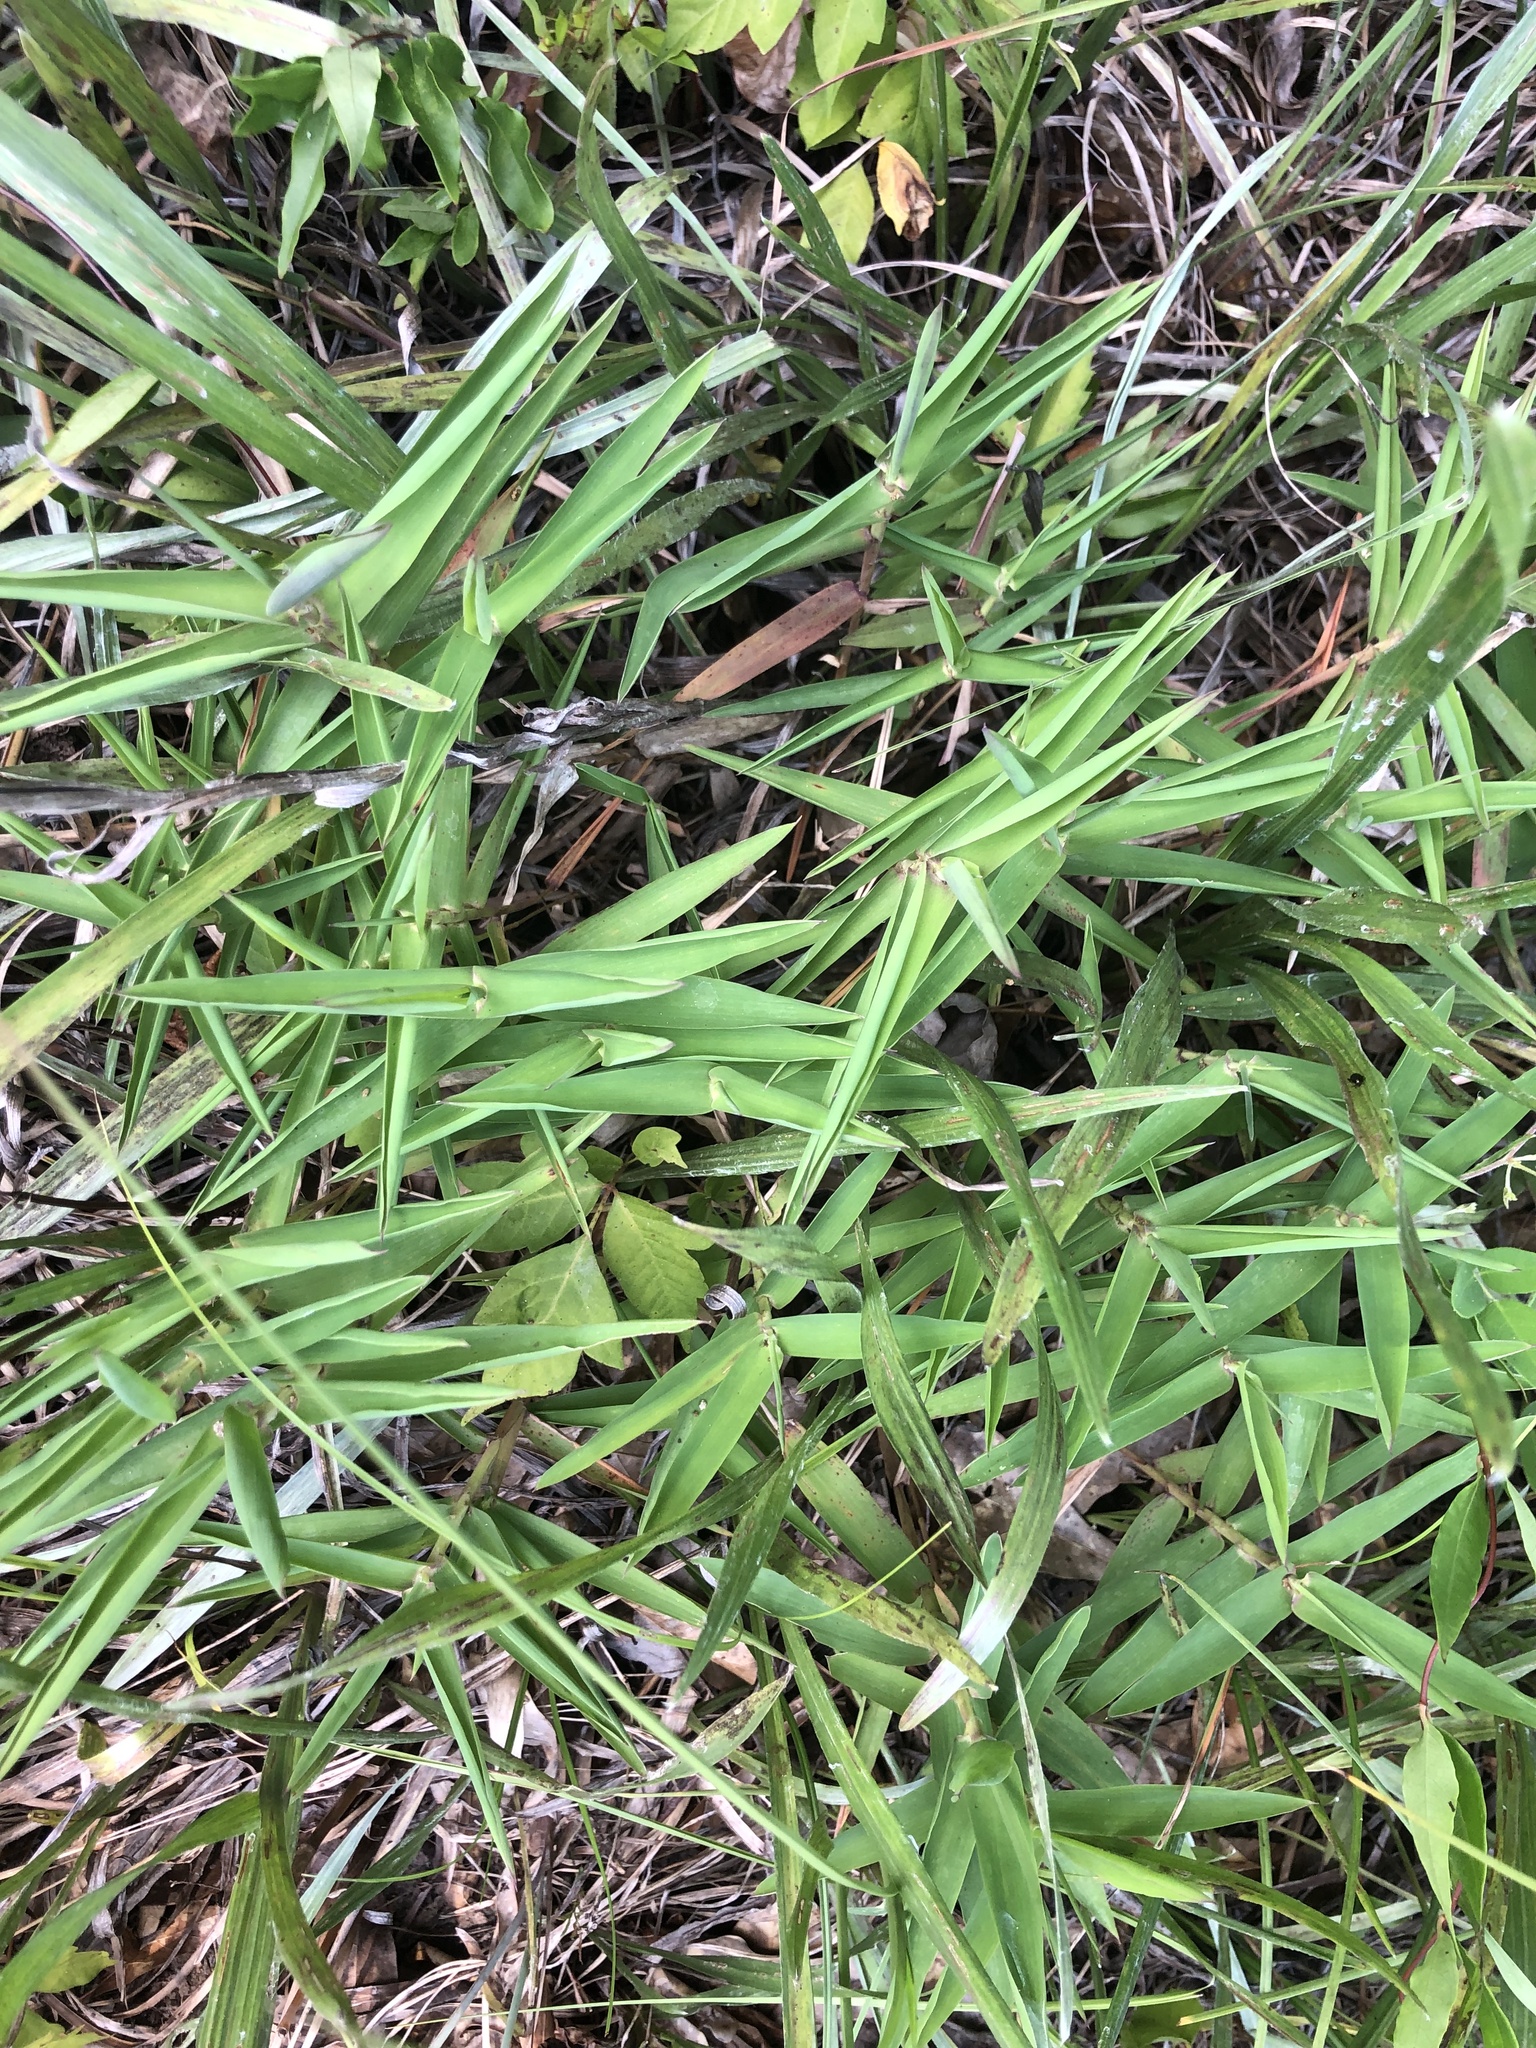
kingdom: Plantae
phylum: Tracheophyta
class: Liliopsida
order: Poales
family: Poaceae
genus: Gymnopogon
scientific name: Gymnopogon brevifolius
